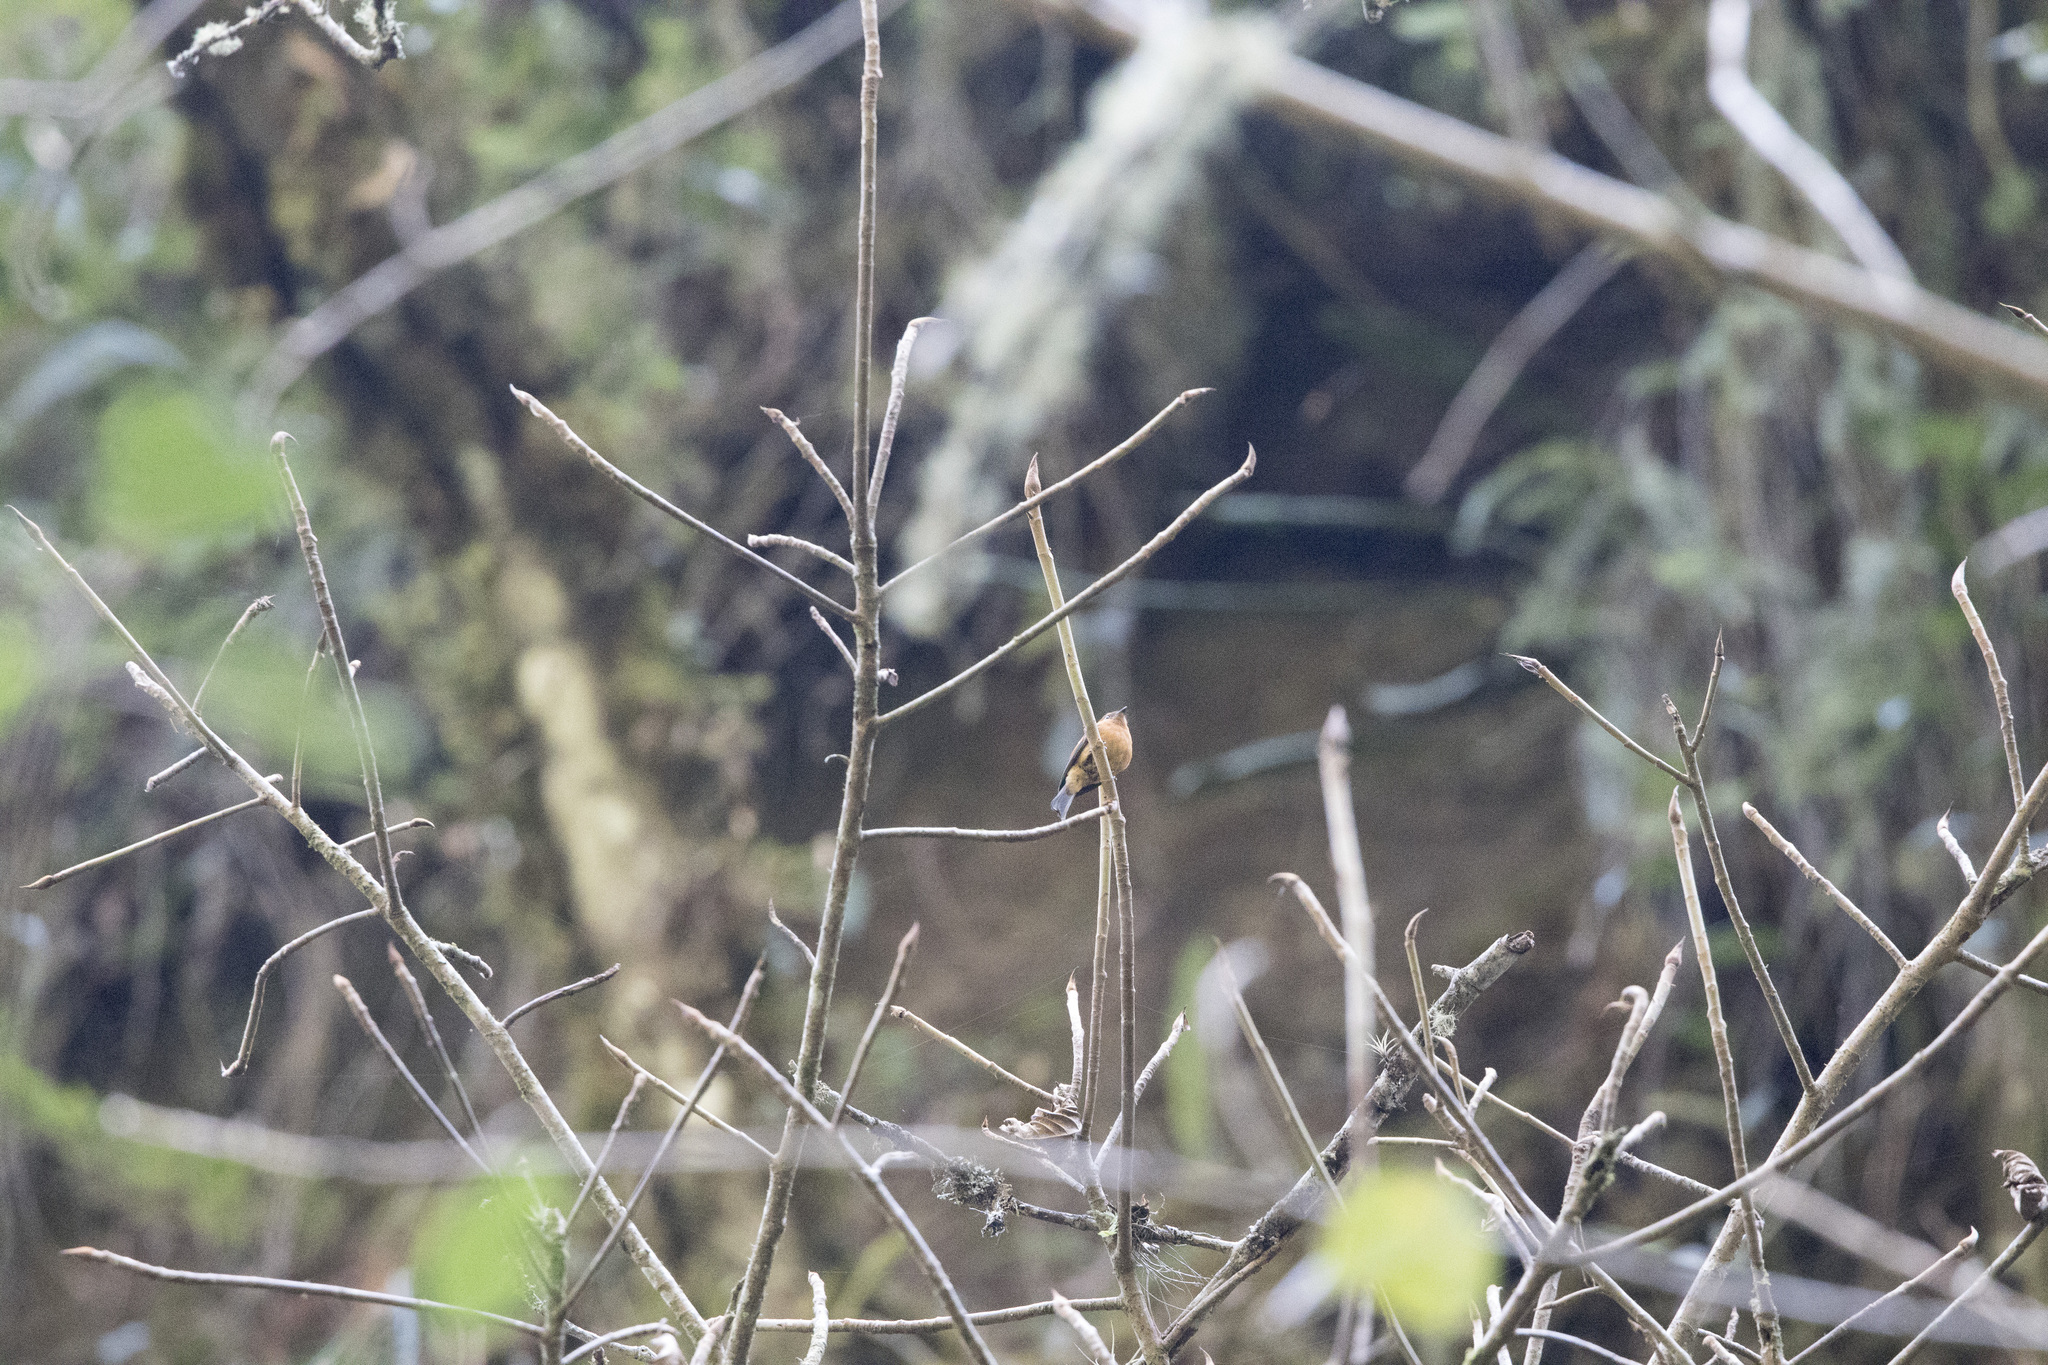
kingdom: Animalia
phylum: Chordata
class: Aves
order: Passeriformes
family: Tyrannidae
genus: Pyrrhomyias
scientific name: Pyrrhomyias cinnamomeus
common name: Cinnamon flycatcher
